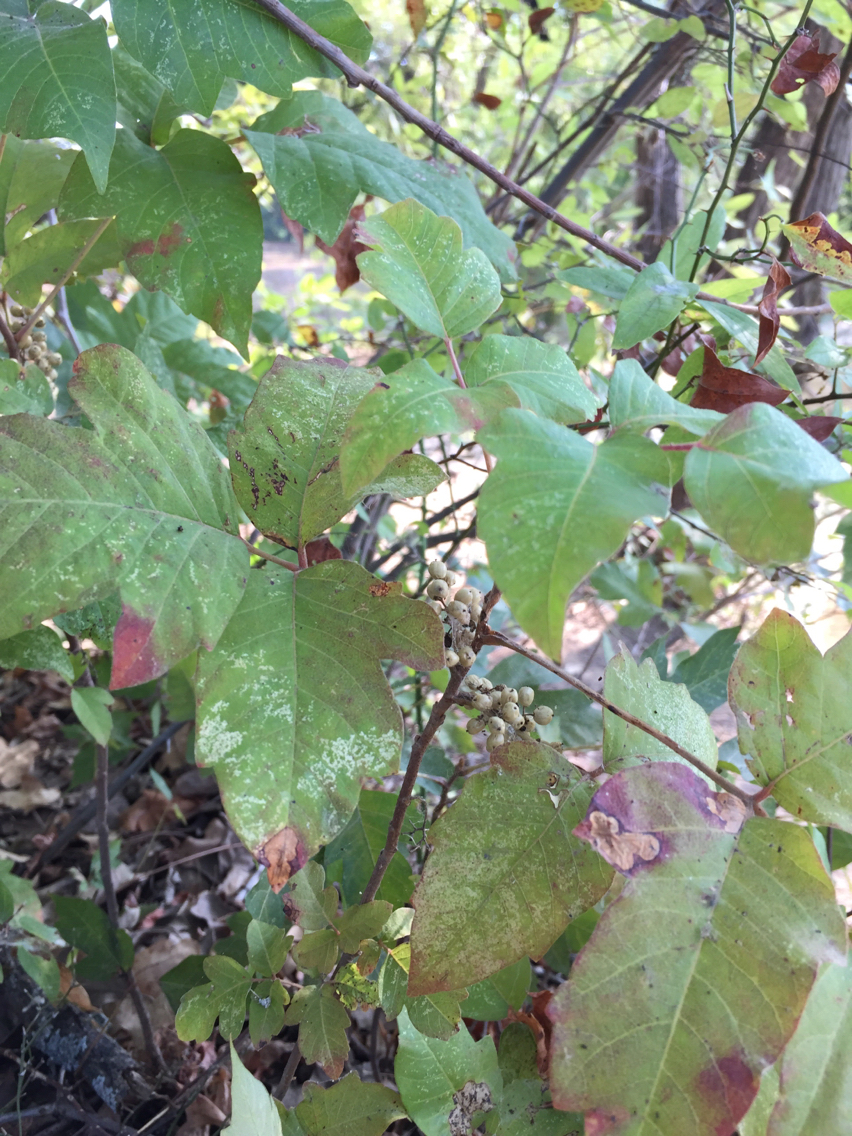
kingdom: Plantae
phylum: Tracheophyta
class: Magnoliopsida
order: Sapindales
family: Anacardiaceae
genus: Toxicodendron
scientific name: Toxicodendron radicans
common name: Poison ivy
